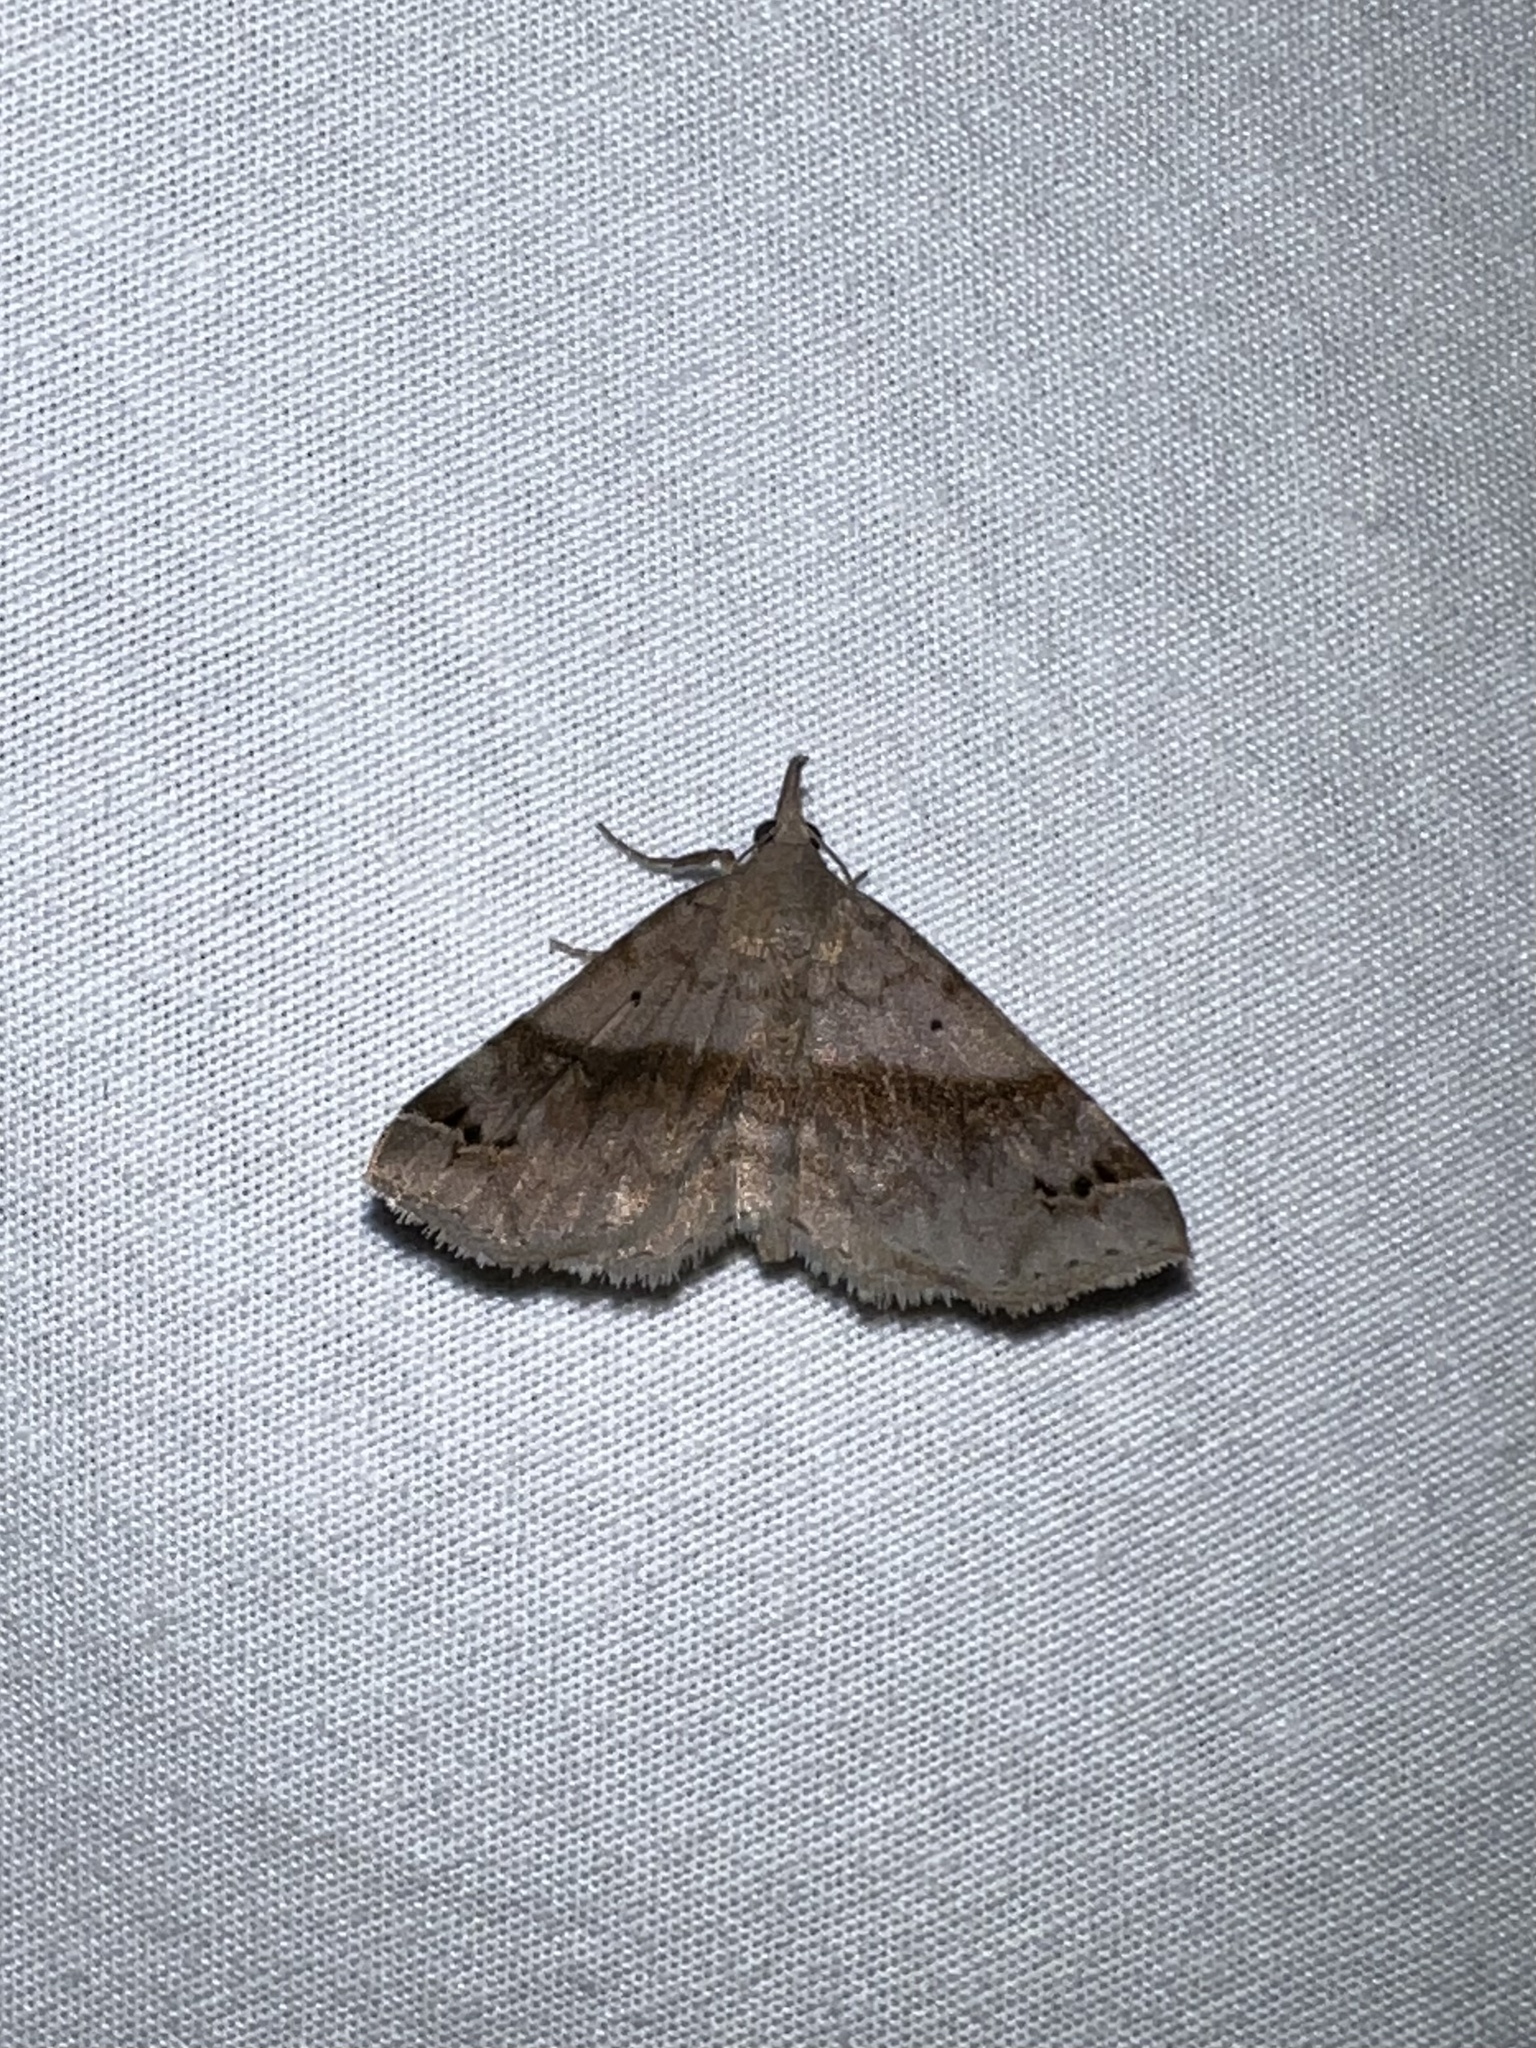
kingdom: Animalia
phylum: Arthropoda
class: Insecta
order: Lepidoptera
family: Erebidae
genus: Spargaloma
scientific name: Spargaloma sexpunctata
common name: Six-spotted gray
